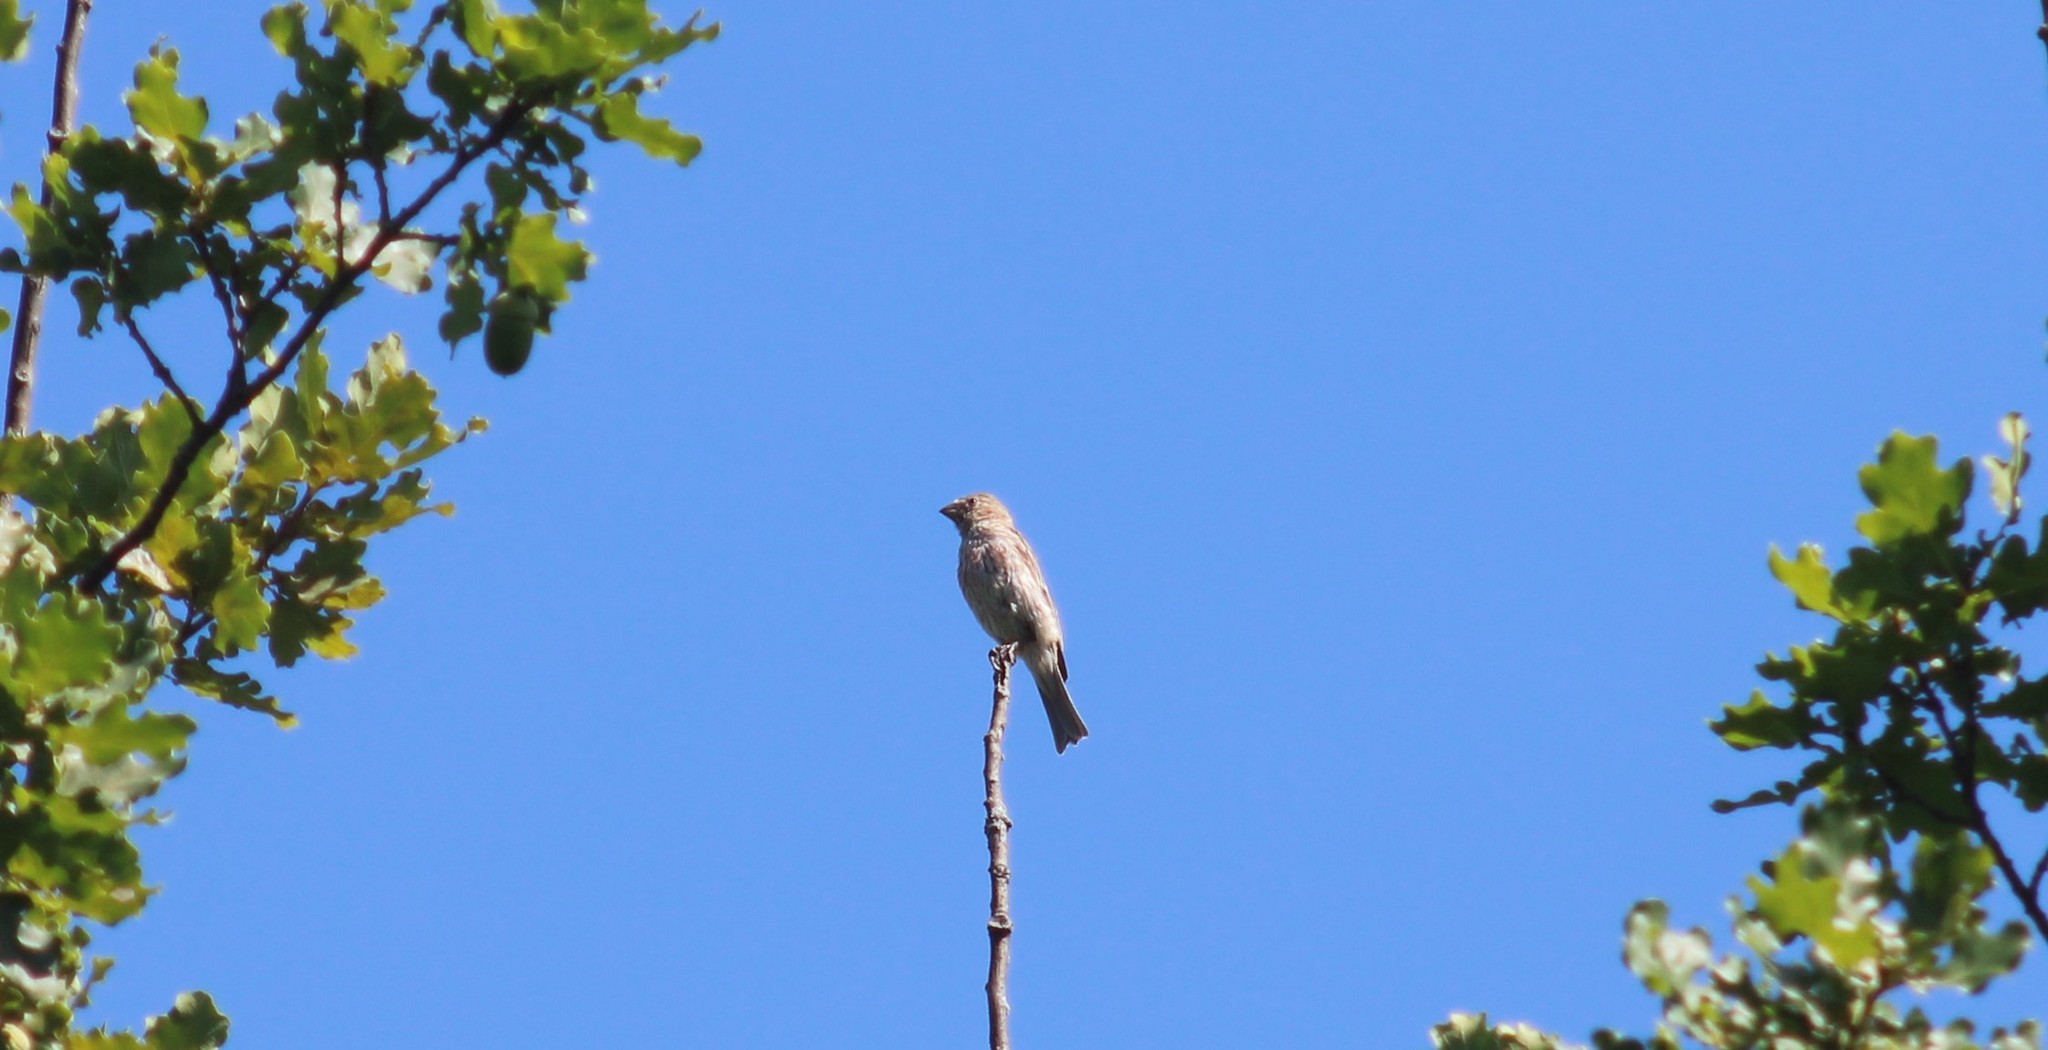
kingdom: Animalia
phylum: Chordata
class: Aves
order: Passeriformes
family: Fringillidae
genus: Haemorhous
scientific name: Haemorhous mexicanus
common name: House finch
